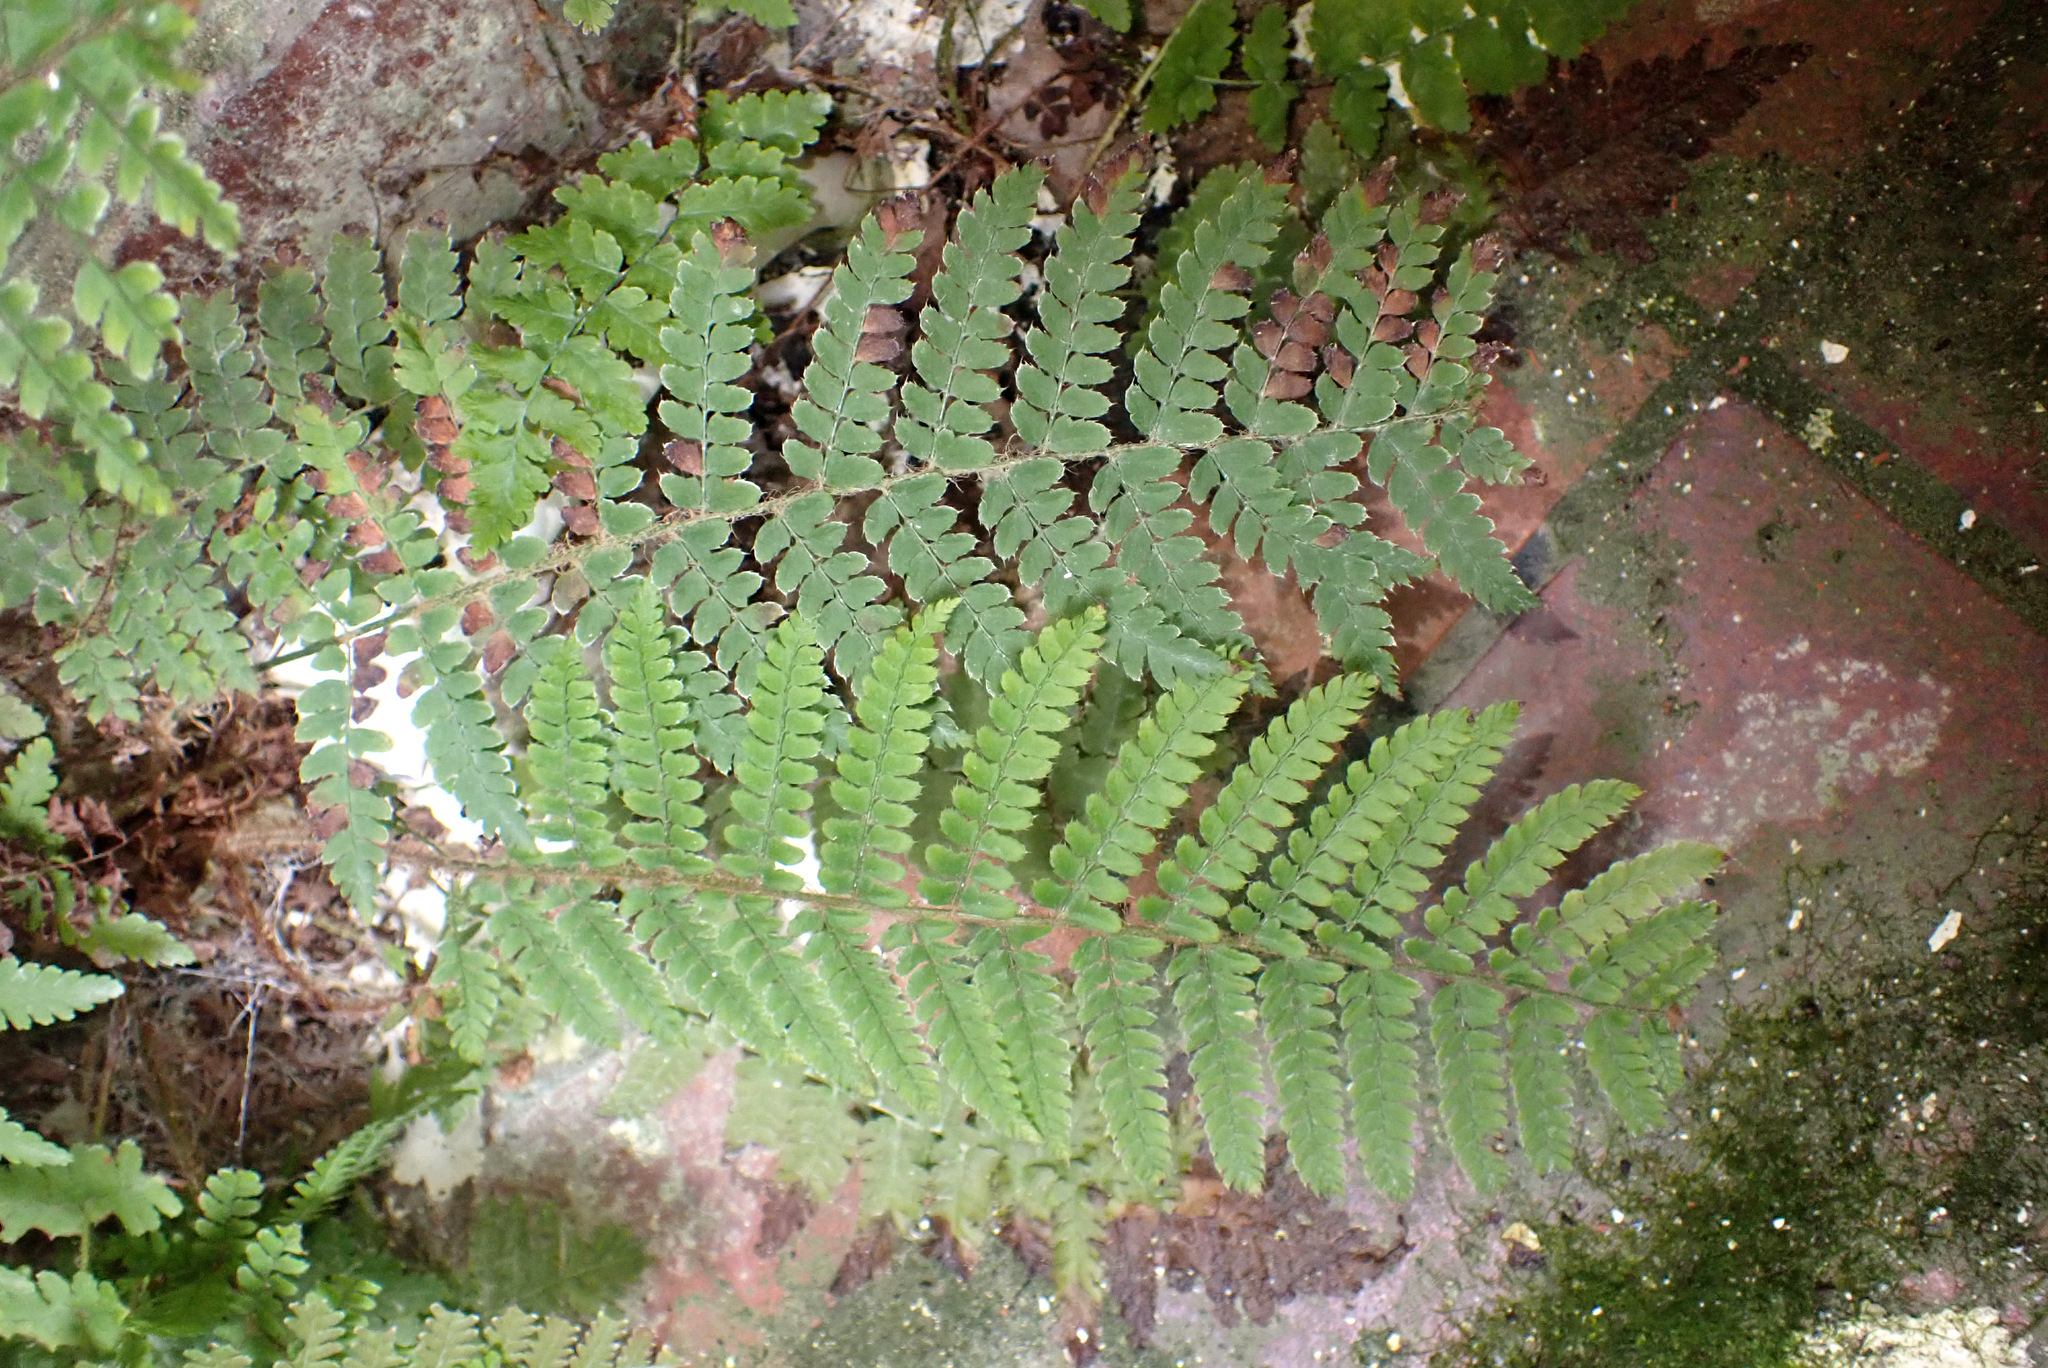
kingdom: Plantae
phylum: Tracheophyta
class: Polypodiopsida
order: Polypodiales
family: Dryopteridaceae
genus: Polystichum
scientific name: Polystichum setiferum
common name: Soft shield-fern
